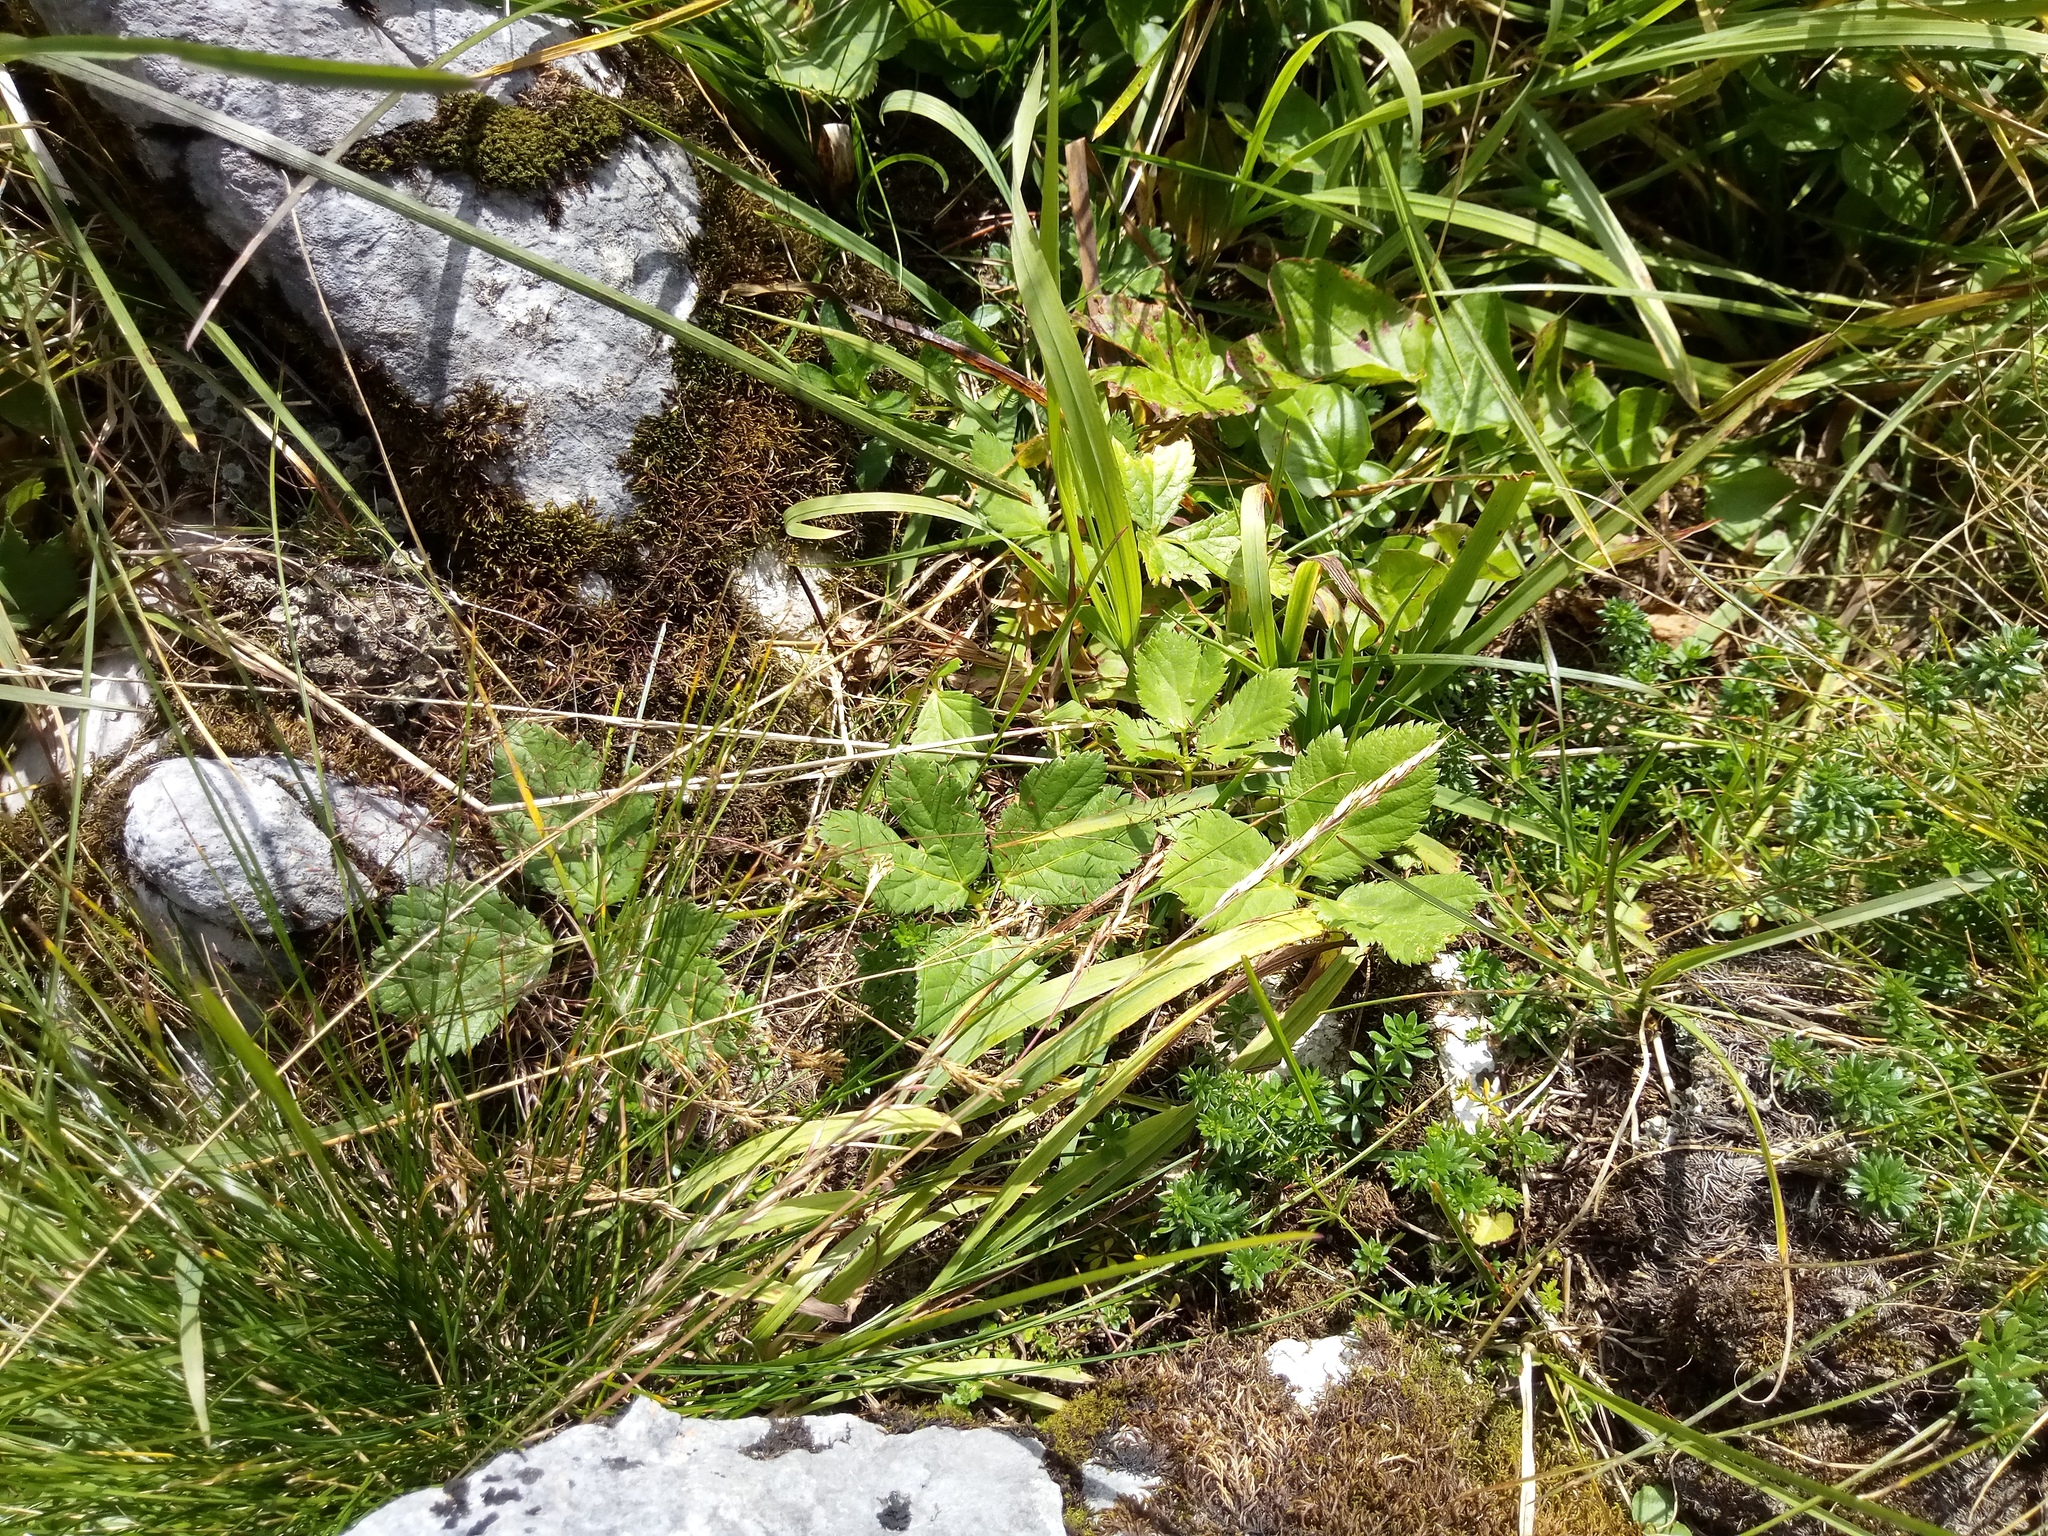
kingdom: Plantae
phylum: Tracheophyta
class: Magnoliopsida
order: Apiales
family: Apiaceae
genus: Imperatoria
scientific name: Imperatoria ostruthium
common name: Masterwort
